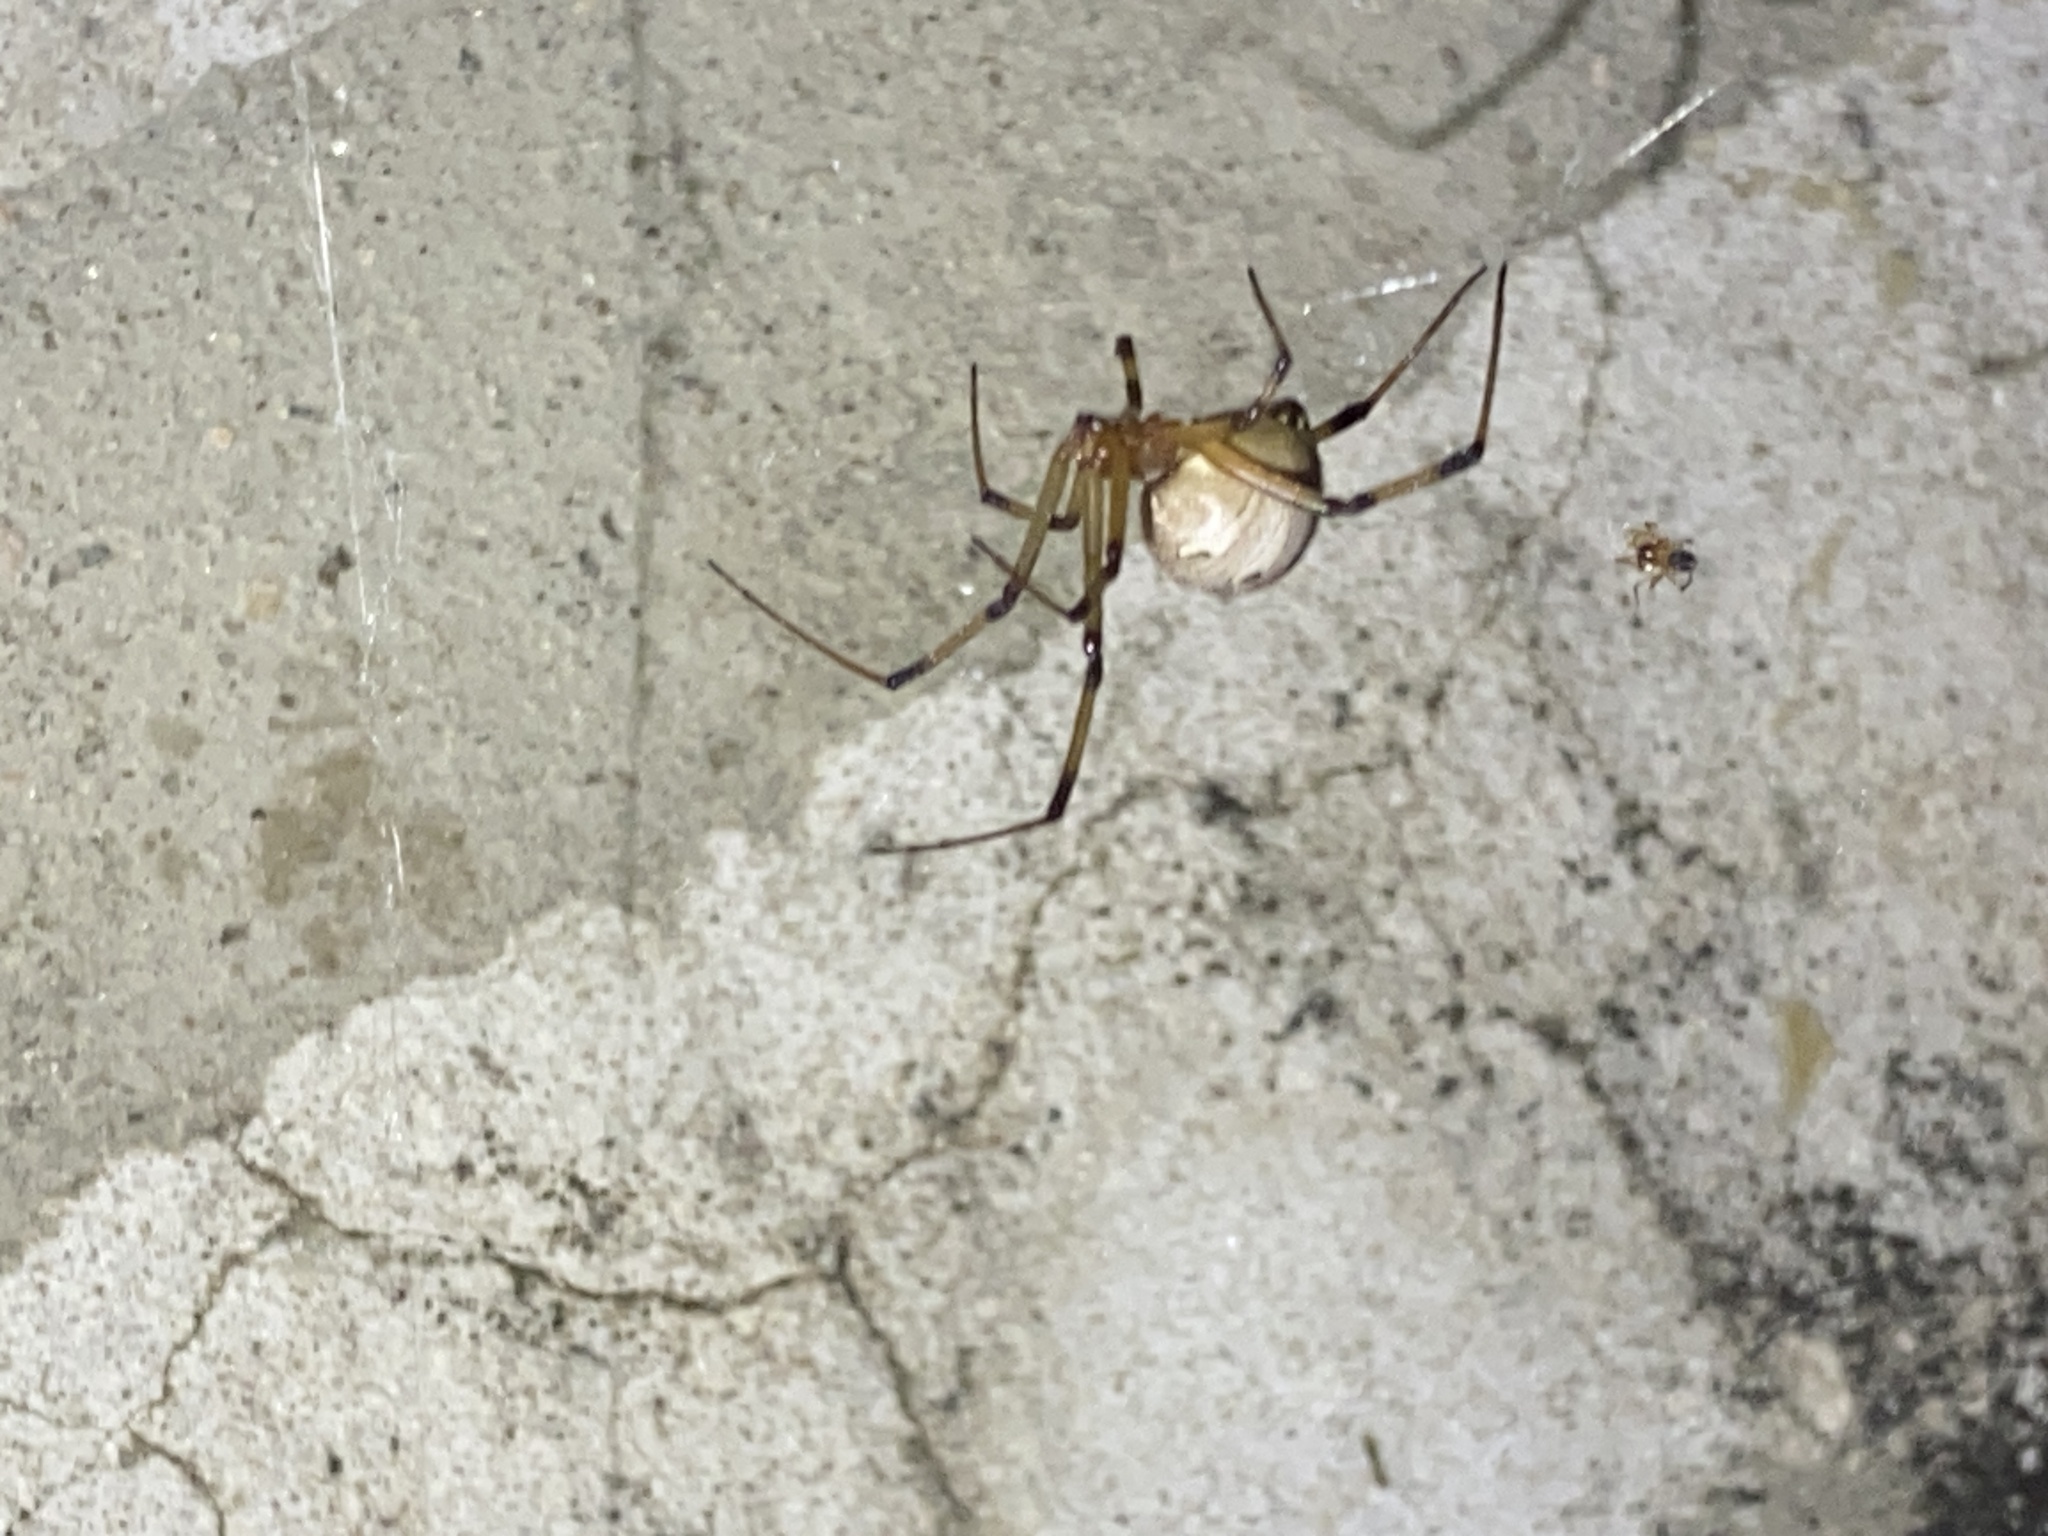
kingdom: Animalia
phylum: Arthropoda
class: Arachnida
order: Araneae
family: Theridiidae
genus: Latrodectus
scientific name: Latrodectus geometricus
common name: Brown widow spider
